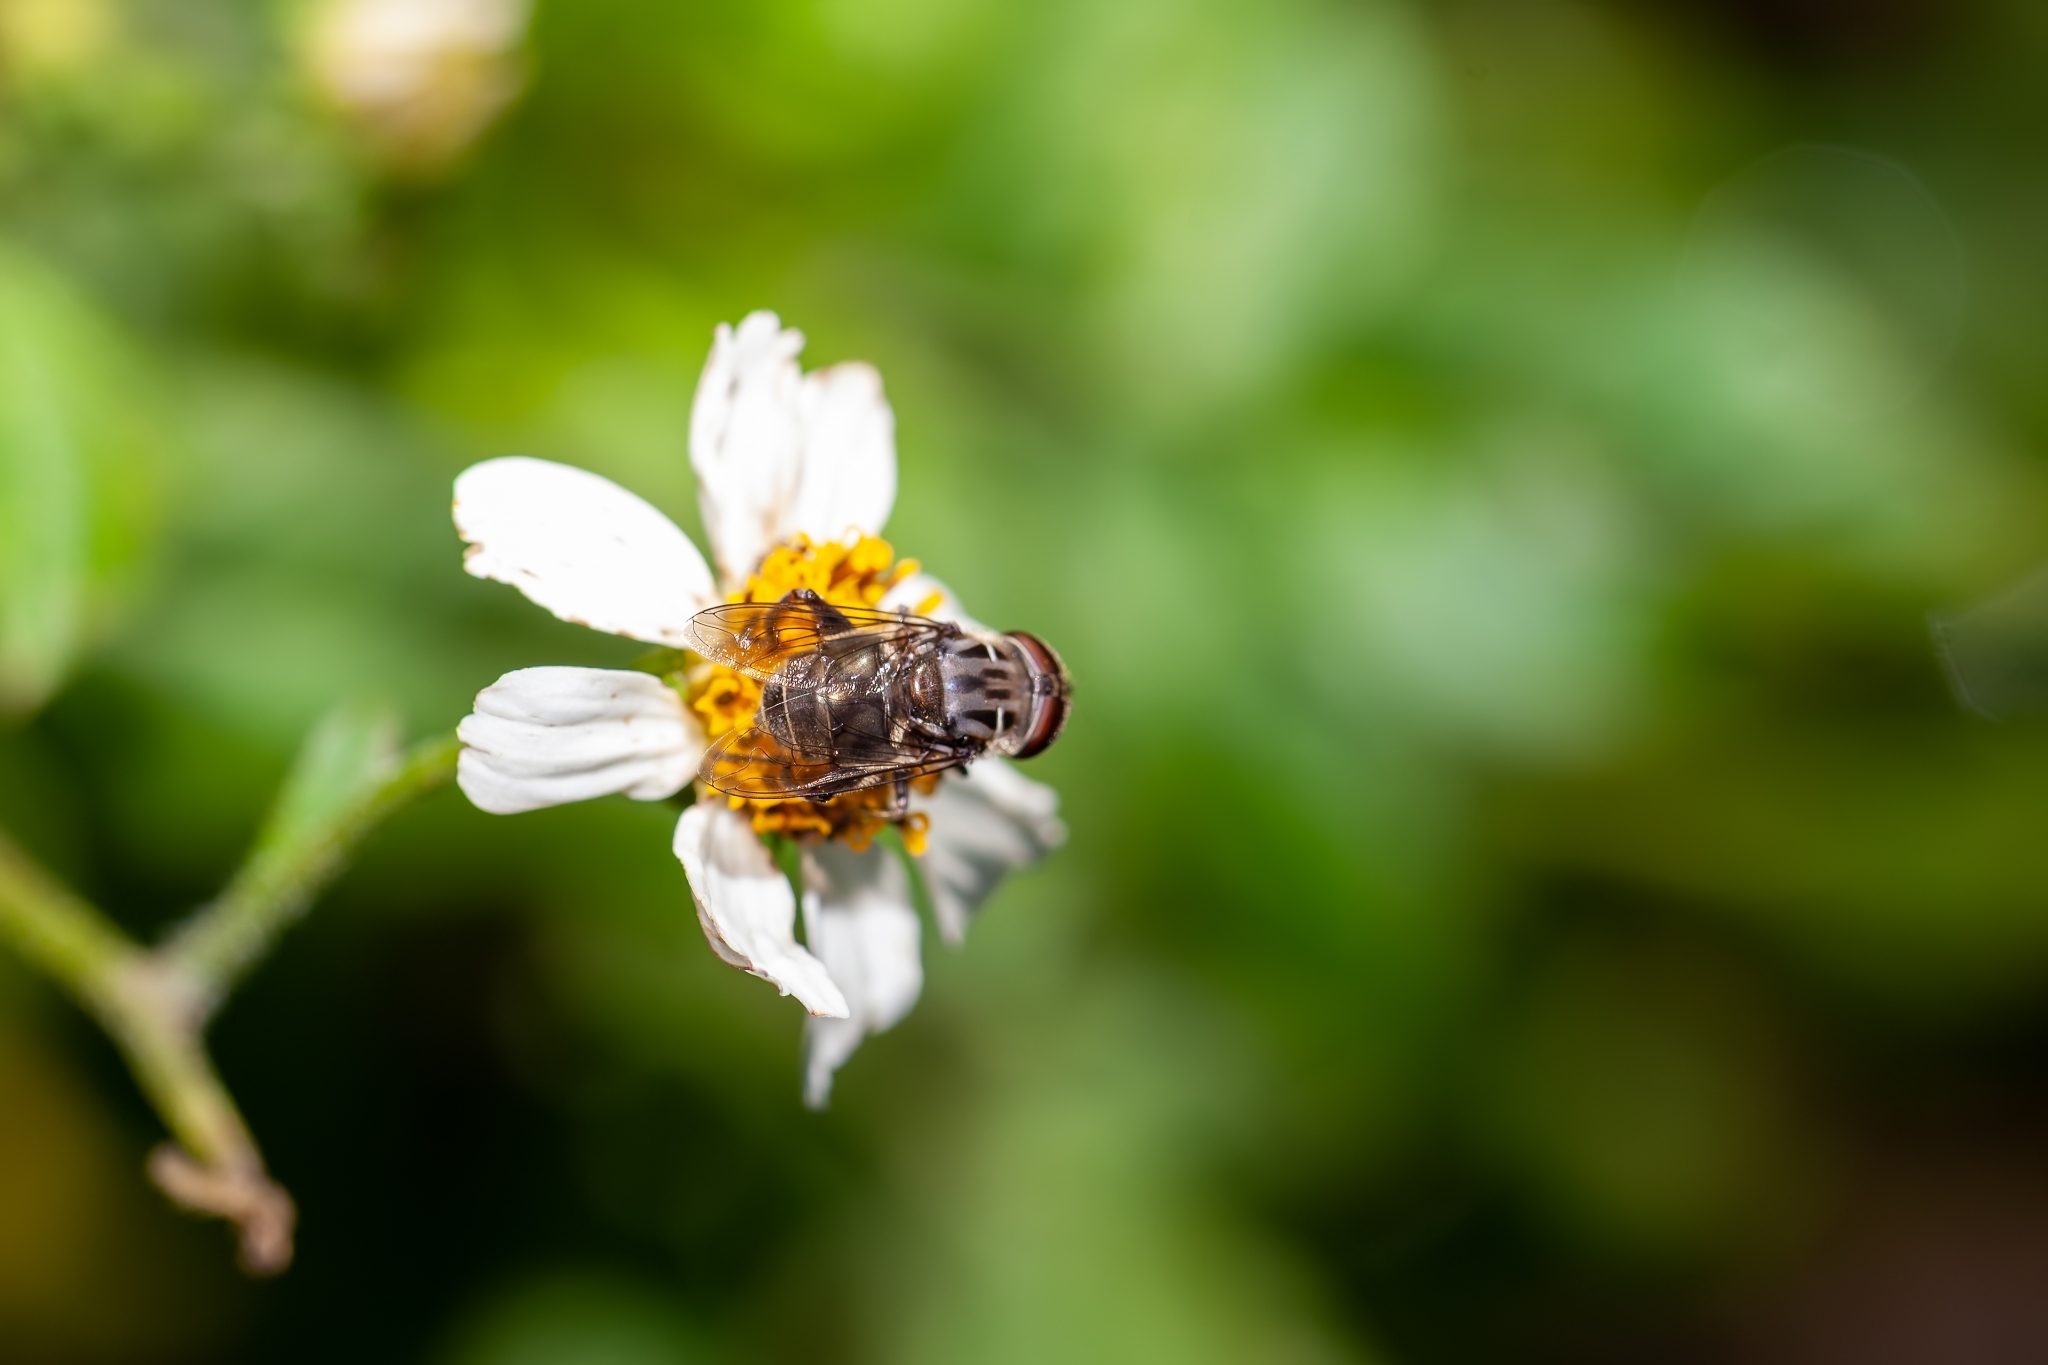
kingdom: Animalia
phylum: Arthropoda
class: Insecta
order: Diptera
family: Syrphidae
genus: Palpada
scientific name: Palpada furcata
